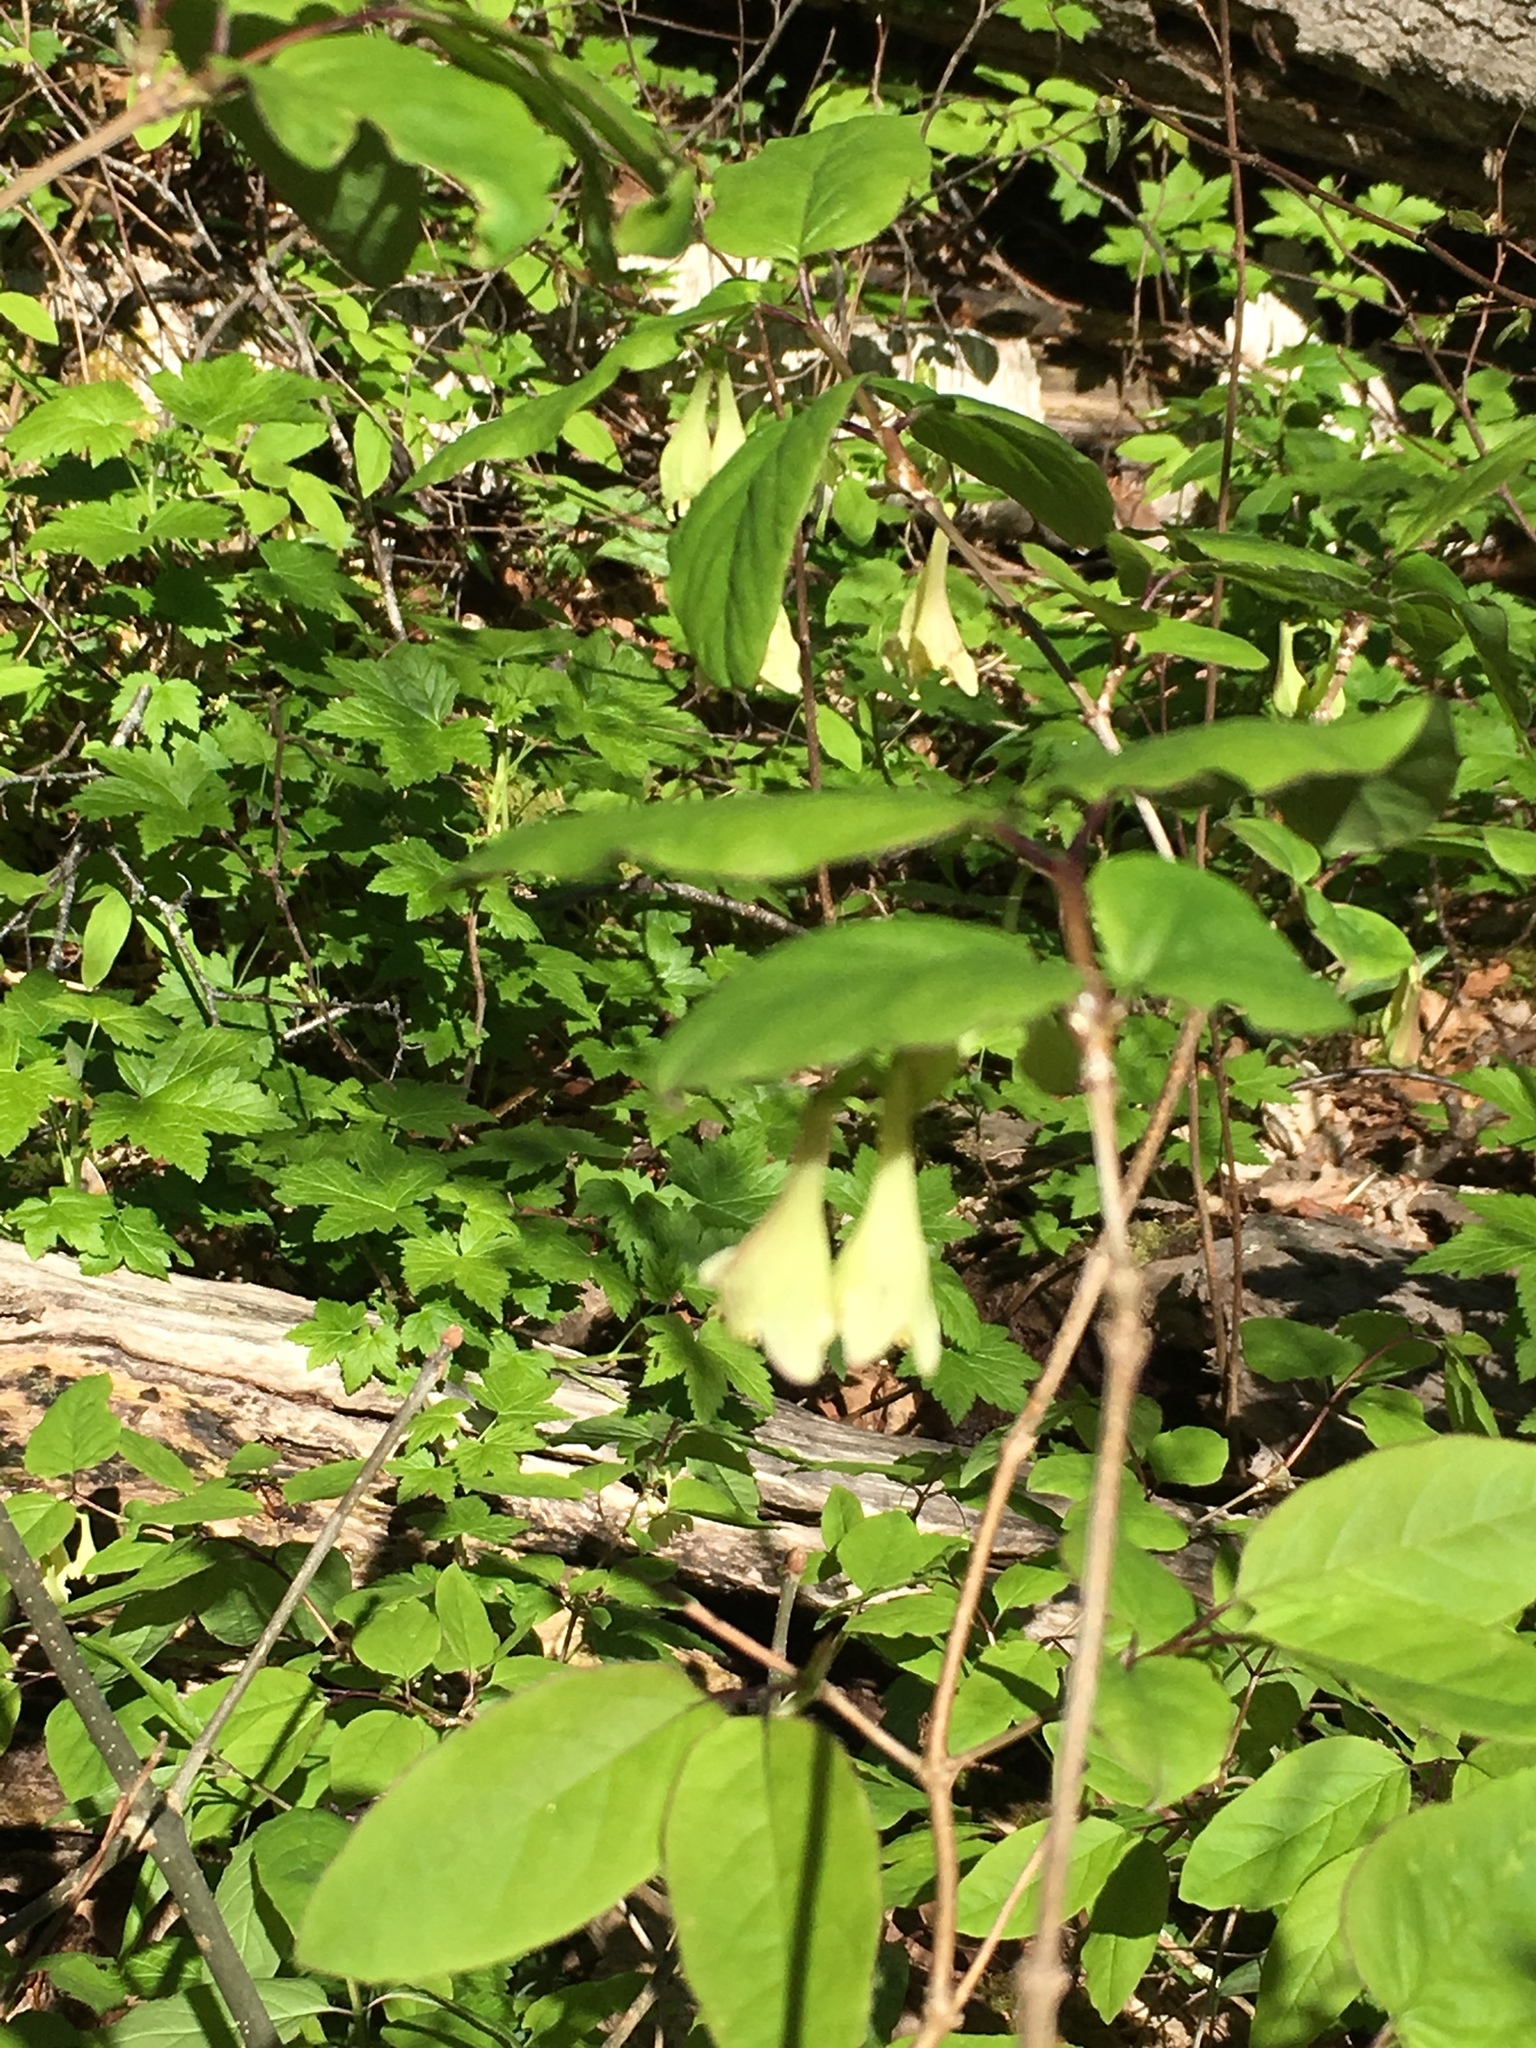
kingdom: Plantae
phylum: Tracheophyta
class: Magnoliopsida
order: Dipsacales
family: Caprifoliaceae
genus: Lonicera
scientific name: Lonicera canadensis
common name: American fly-honeysuckle
